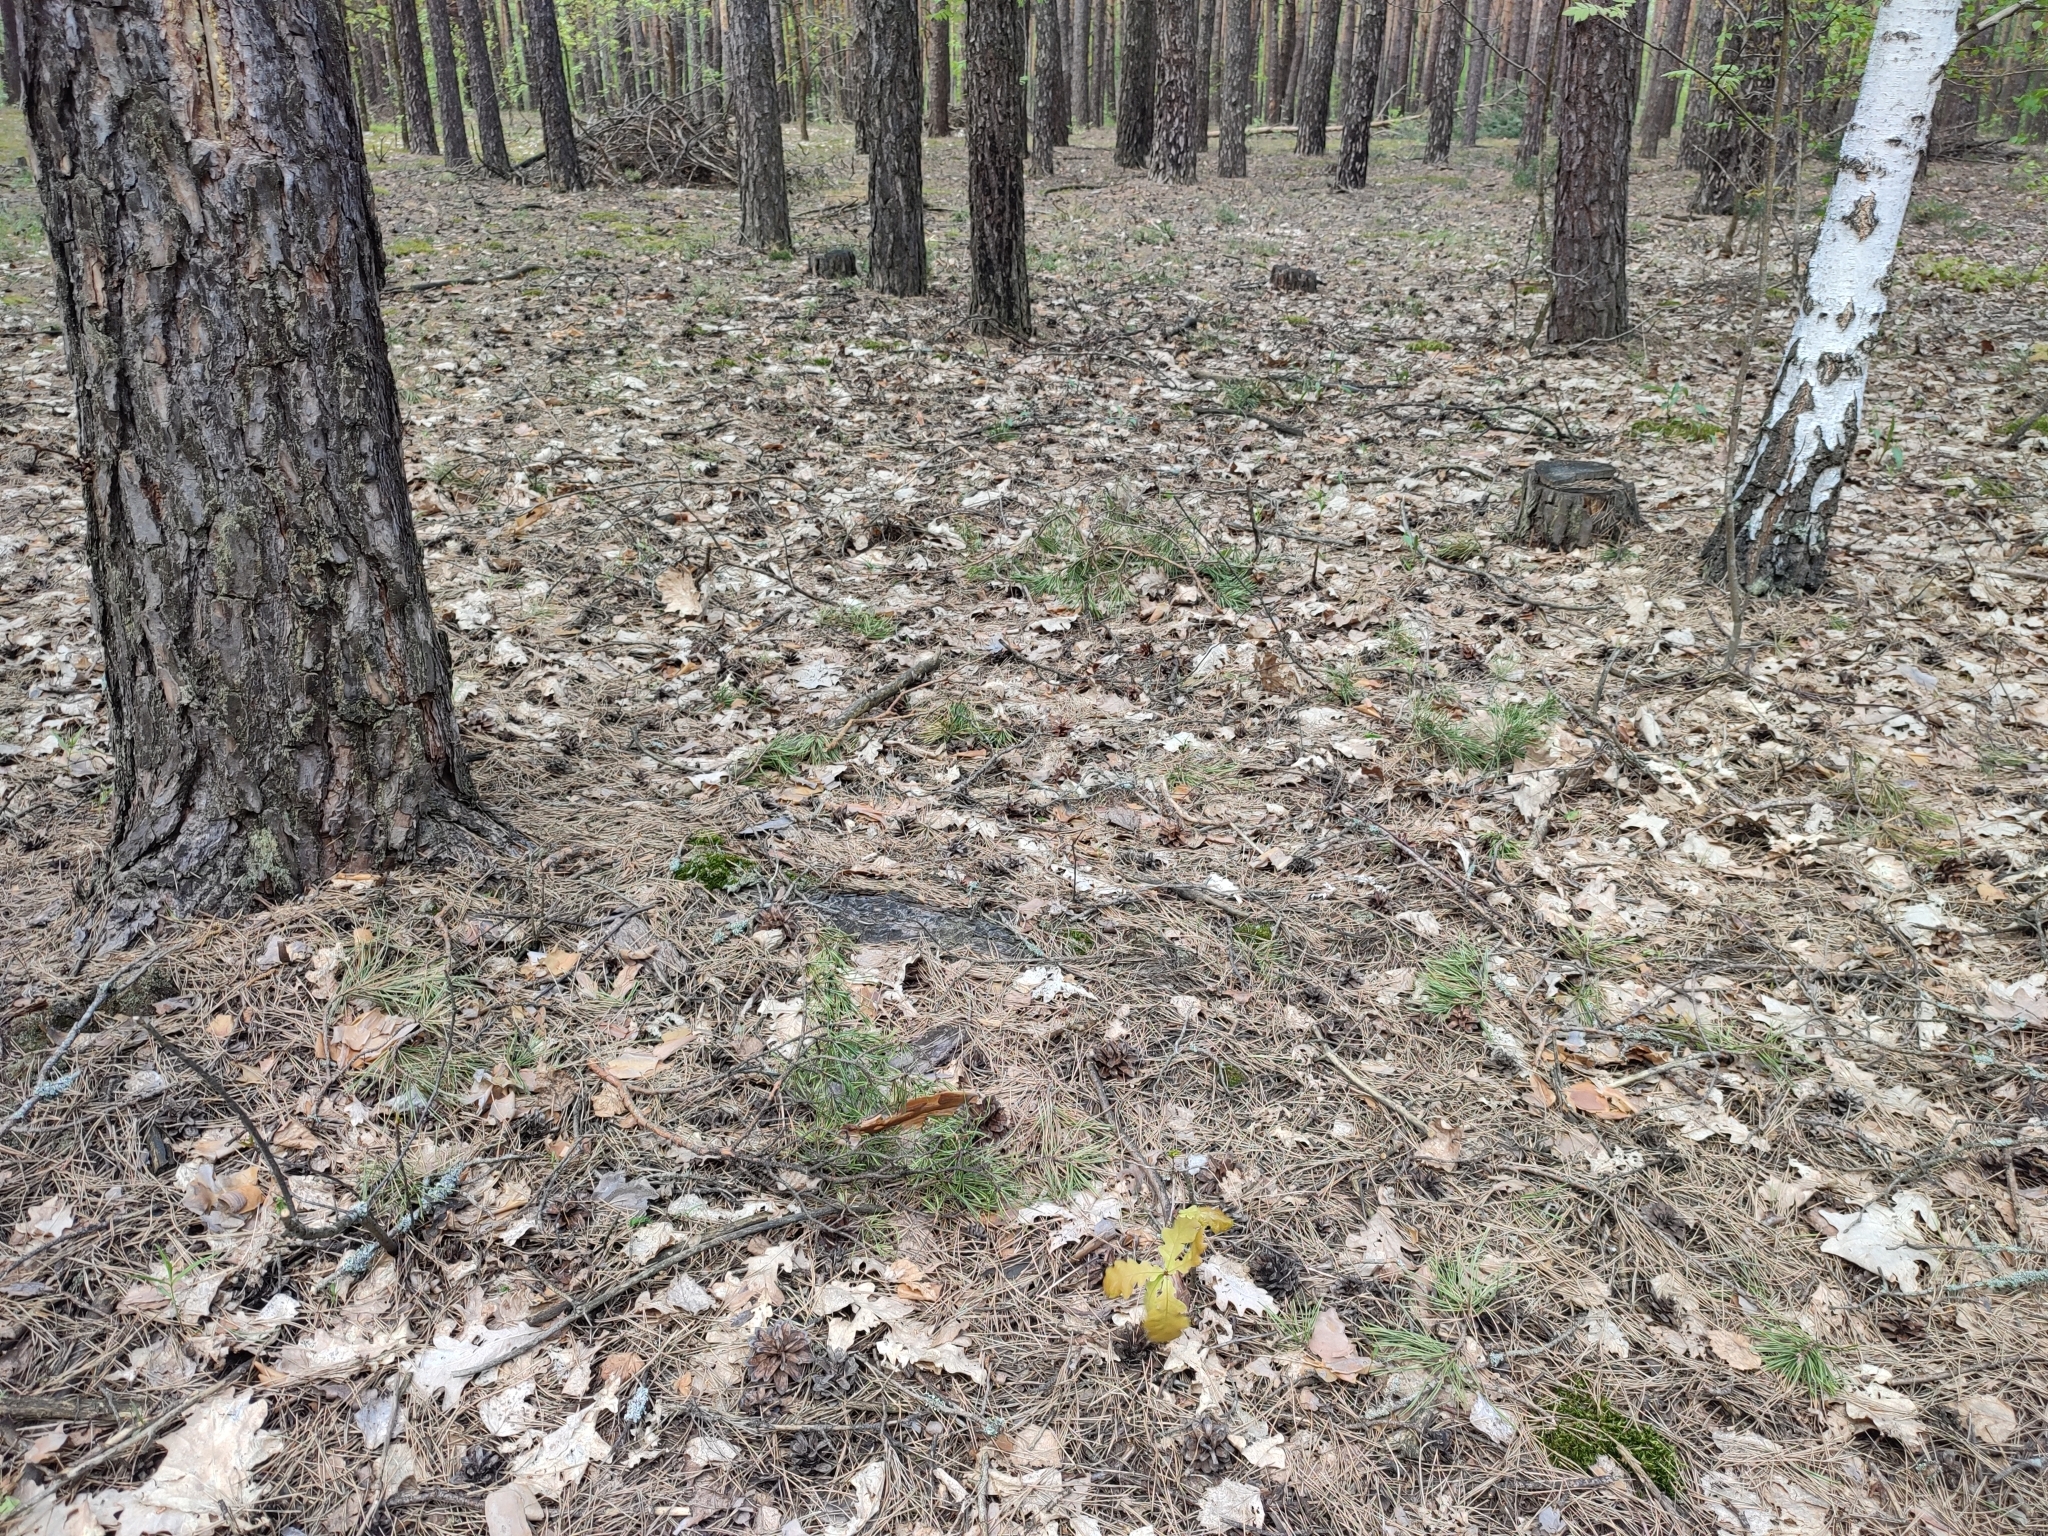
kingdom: Plantae
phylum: Tracheophyta
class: Magnoliopsida
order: Fagales
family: Fagaceae
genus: Quercus
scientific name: Quercus robur
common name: Pedunculate oak
